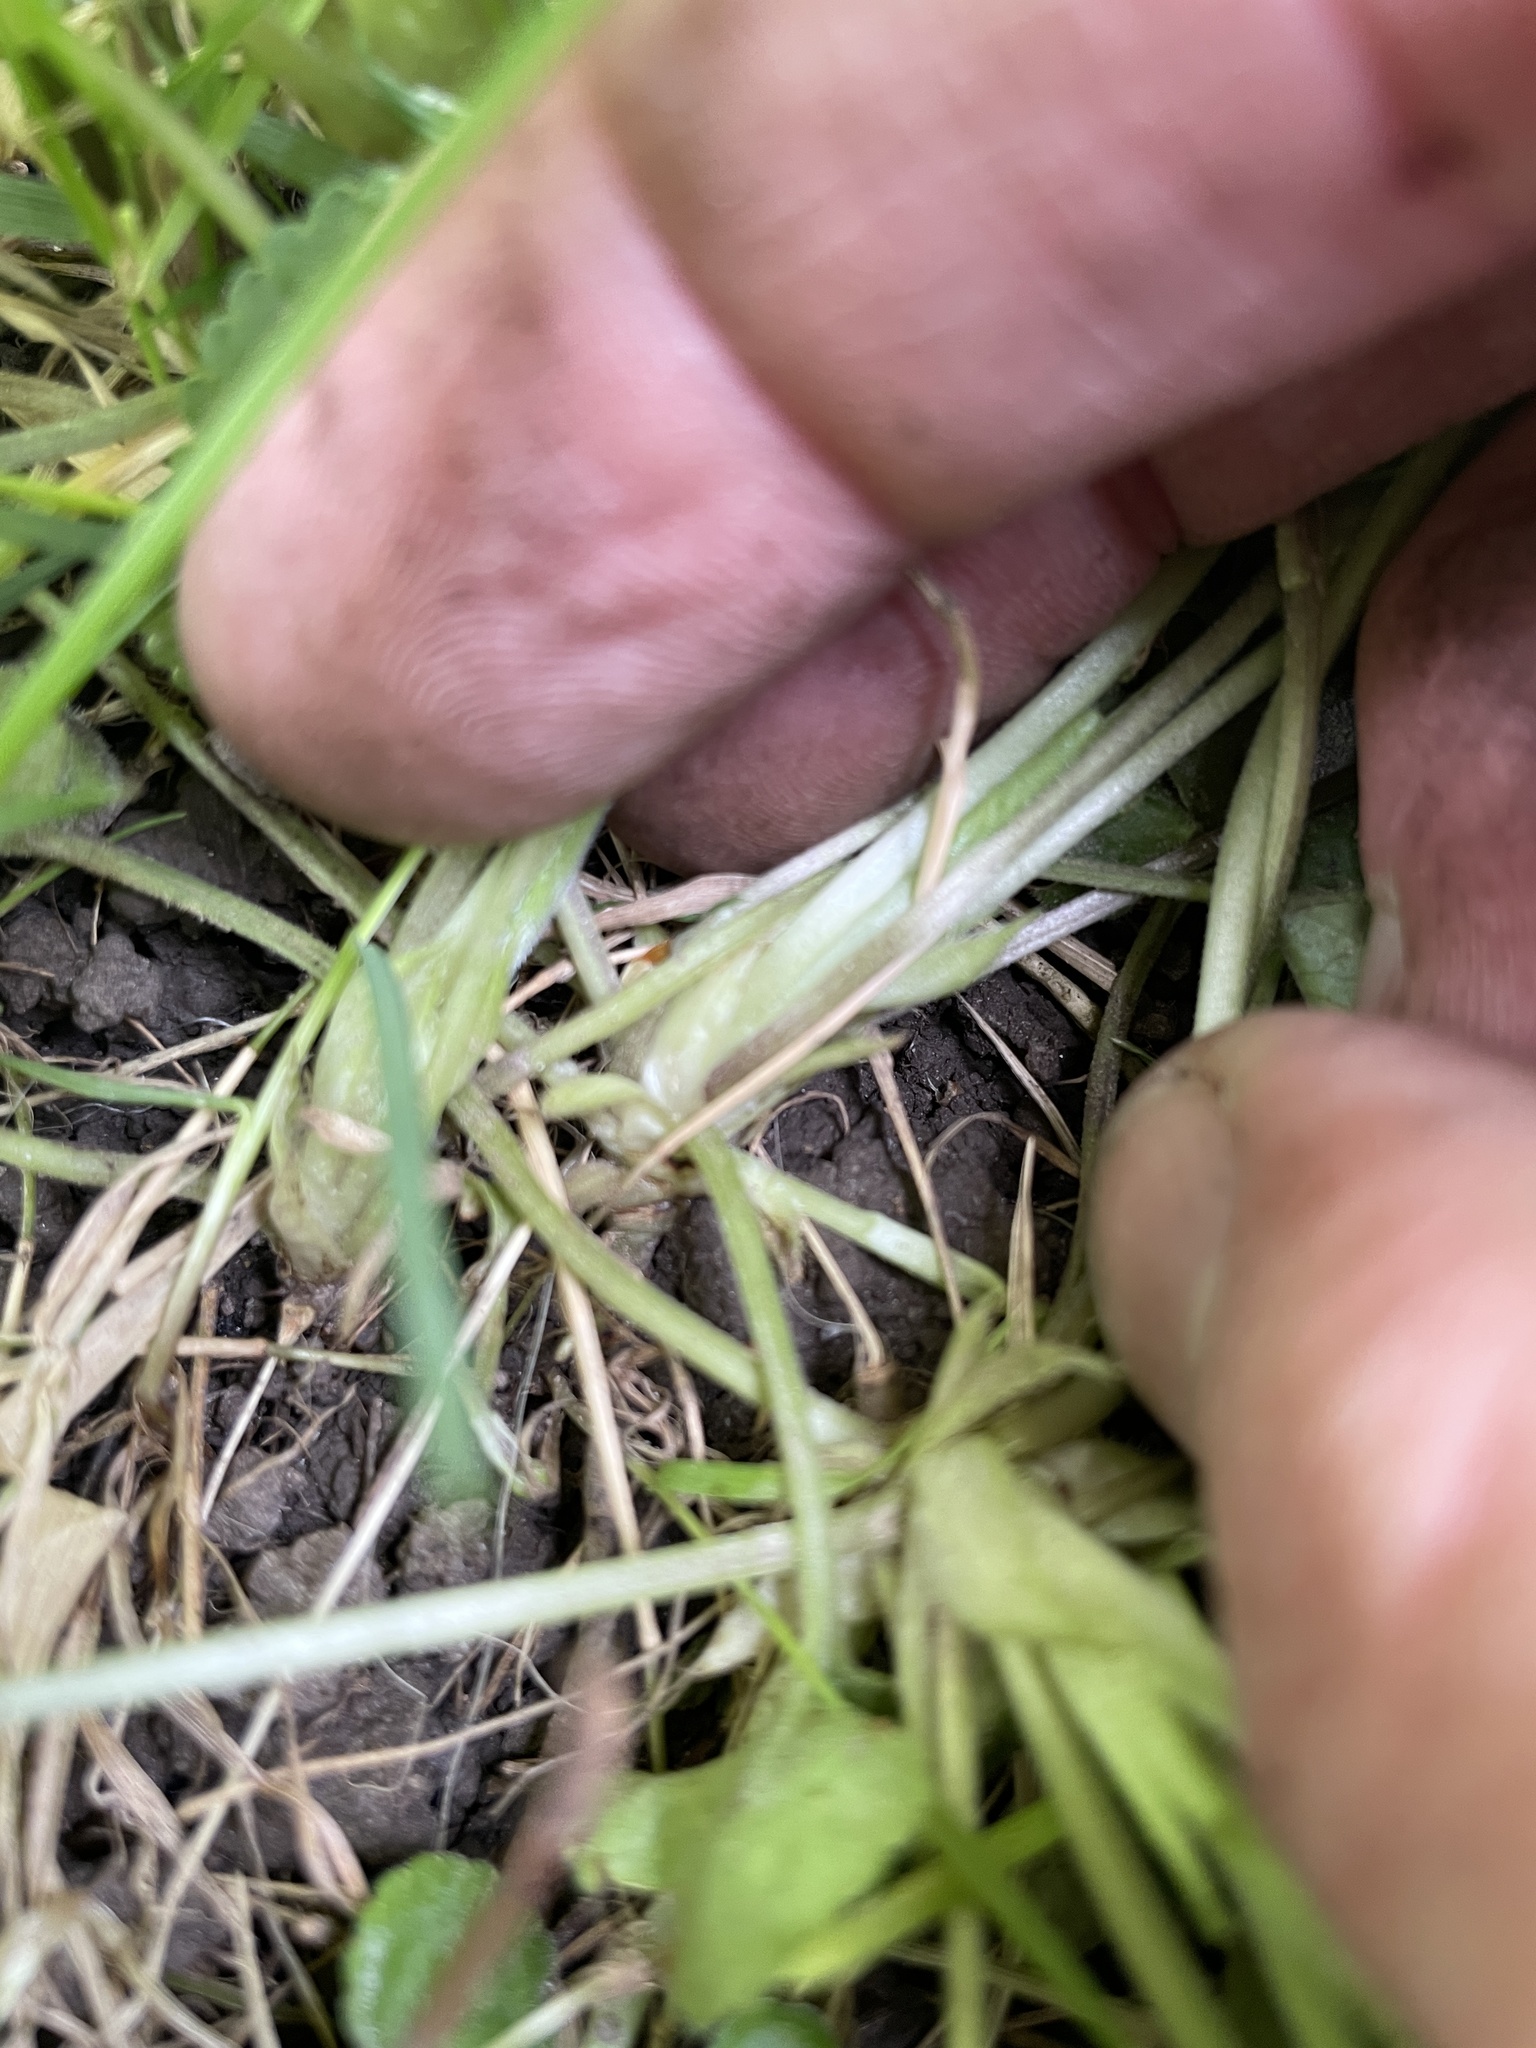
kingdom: Plantae
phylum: Tracheophyta
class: Magnoliopsida
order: Malpighiales
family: Violaceae
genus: Viola
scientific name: Viola odorata
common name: Sweet violet
